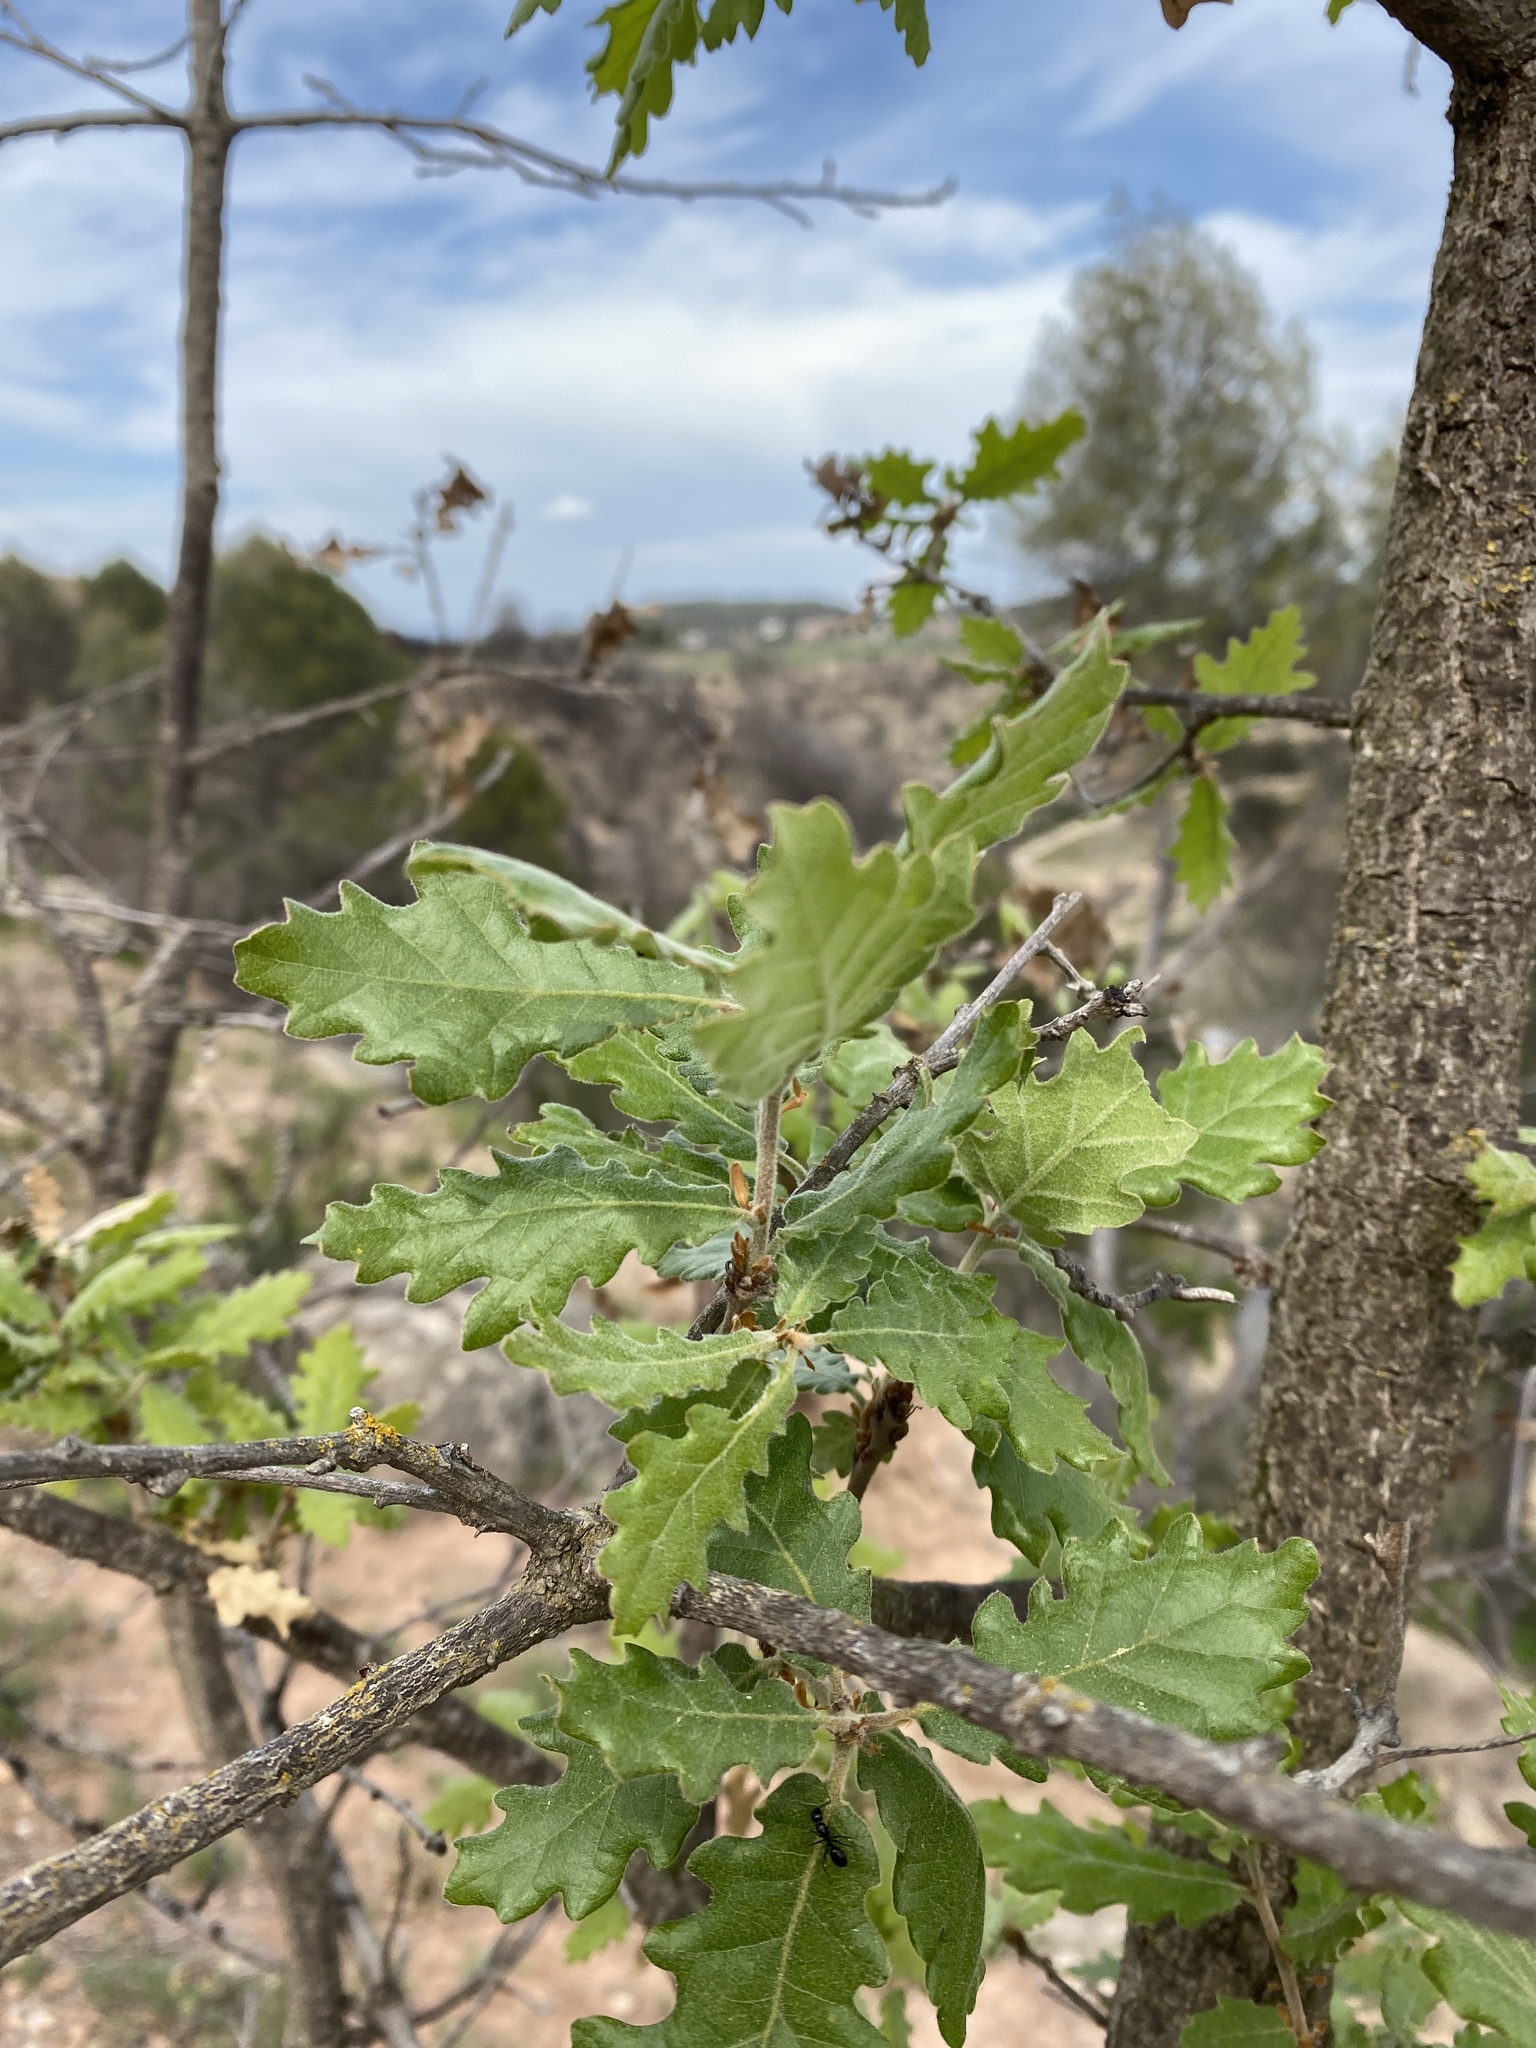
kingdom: Plantae
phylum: Tracheophyta
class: Magnoliopsida
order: Fagales
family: Fagaceae
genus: Quercus
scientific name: Quercus pubescens
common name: Downy oak
